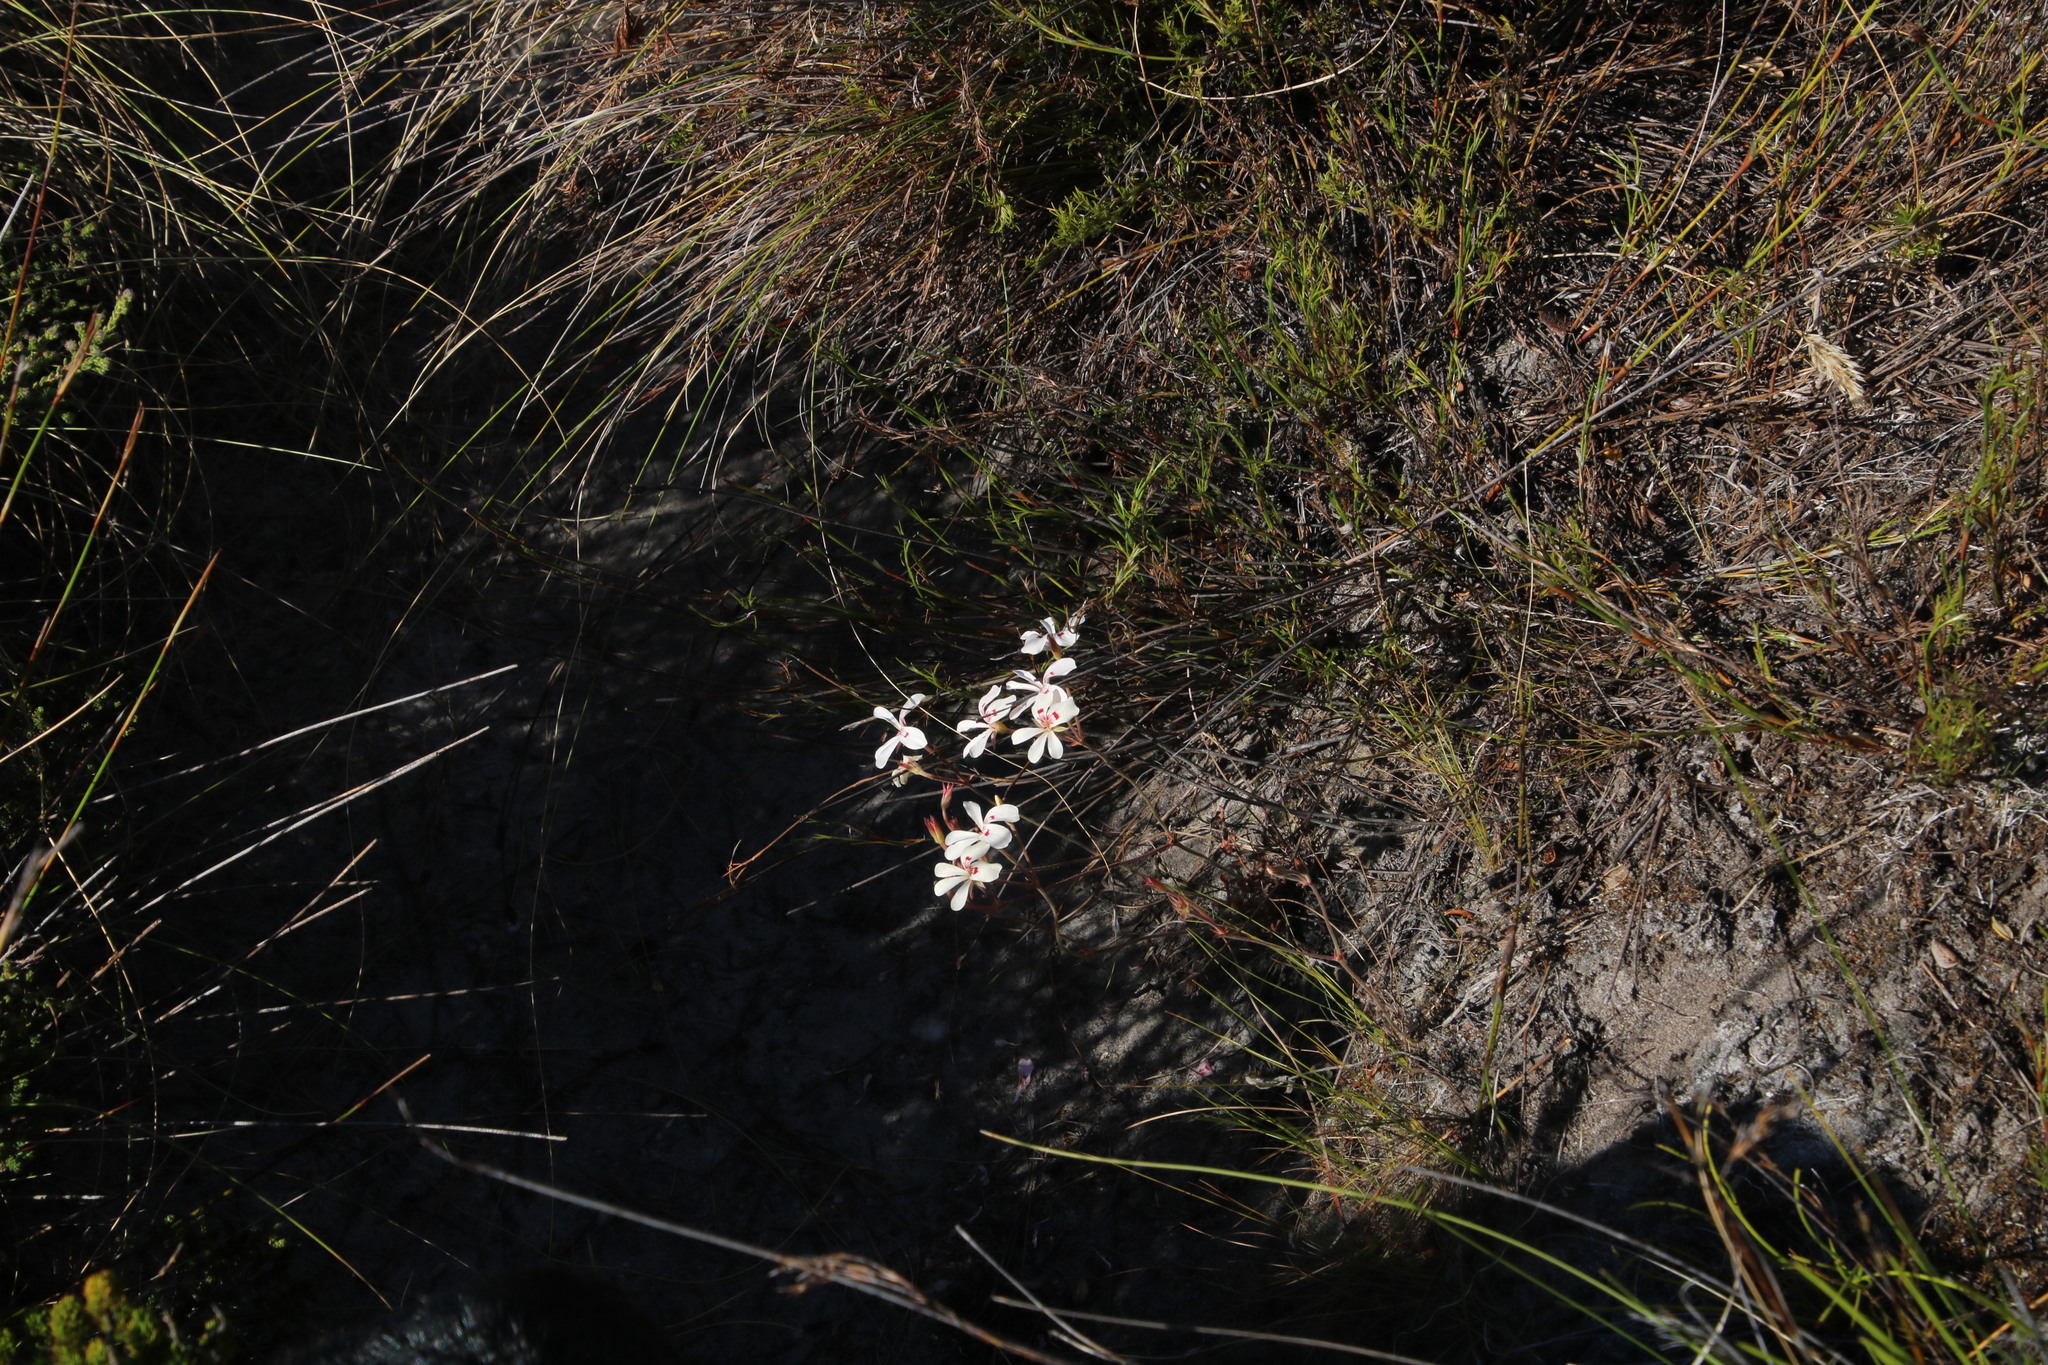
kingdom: Plantae
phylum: Tracheophyta
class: Magnoliopsida
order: Geraniales
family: Geraniaceae
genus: Pelargonium
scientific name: Pelargonium pinnatum
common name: Pinnated pelargonium
